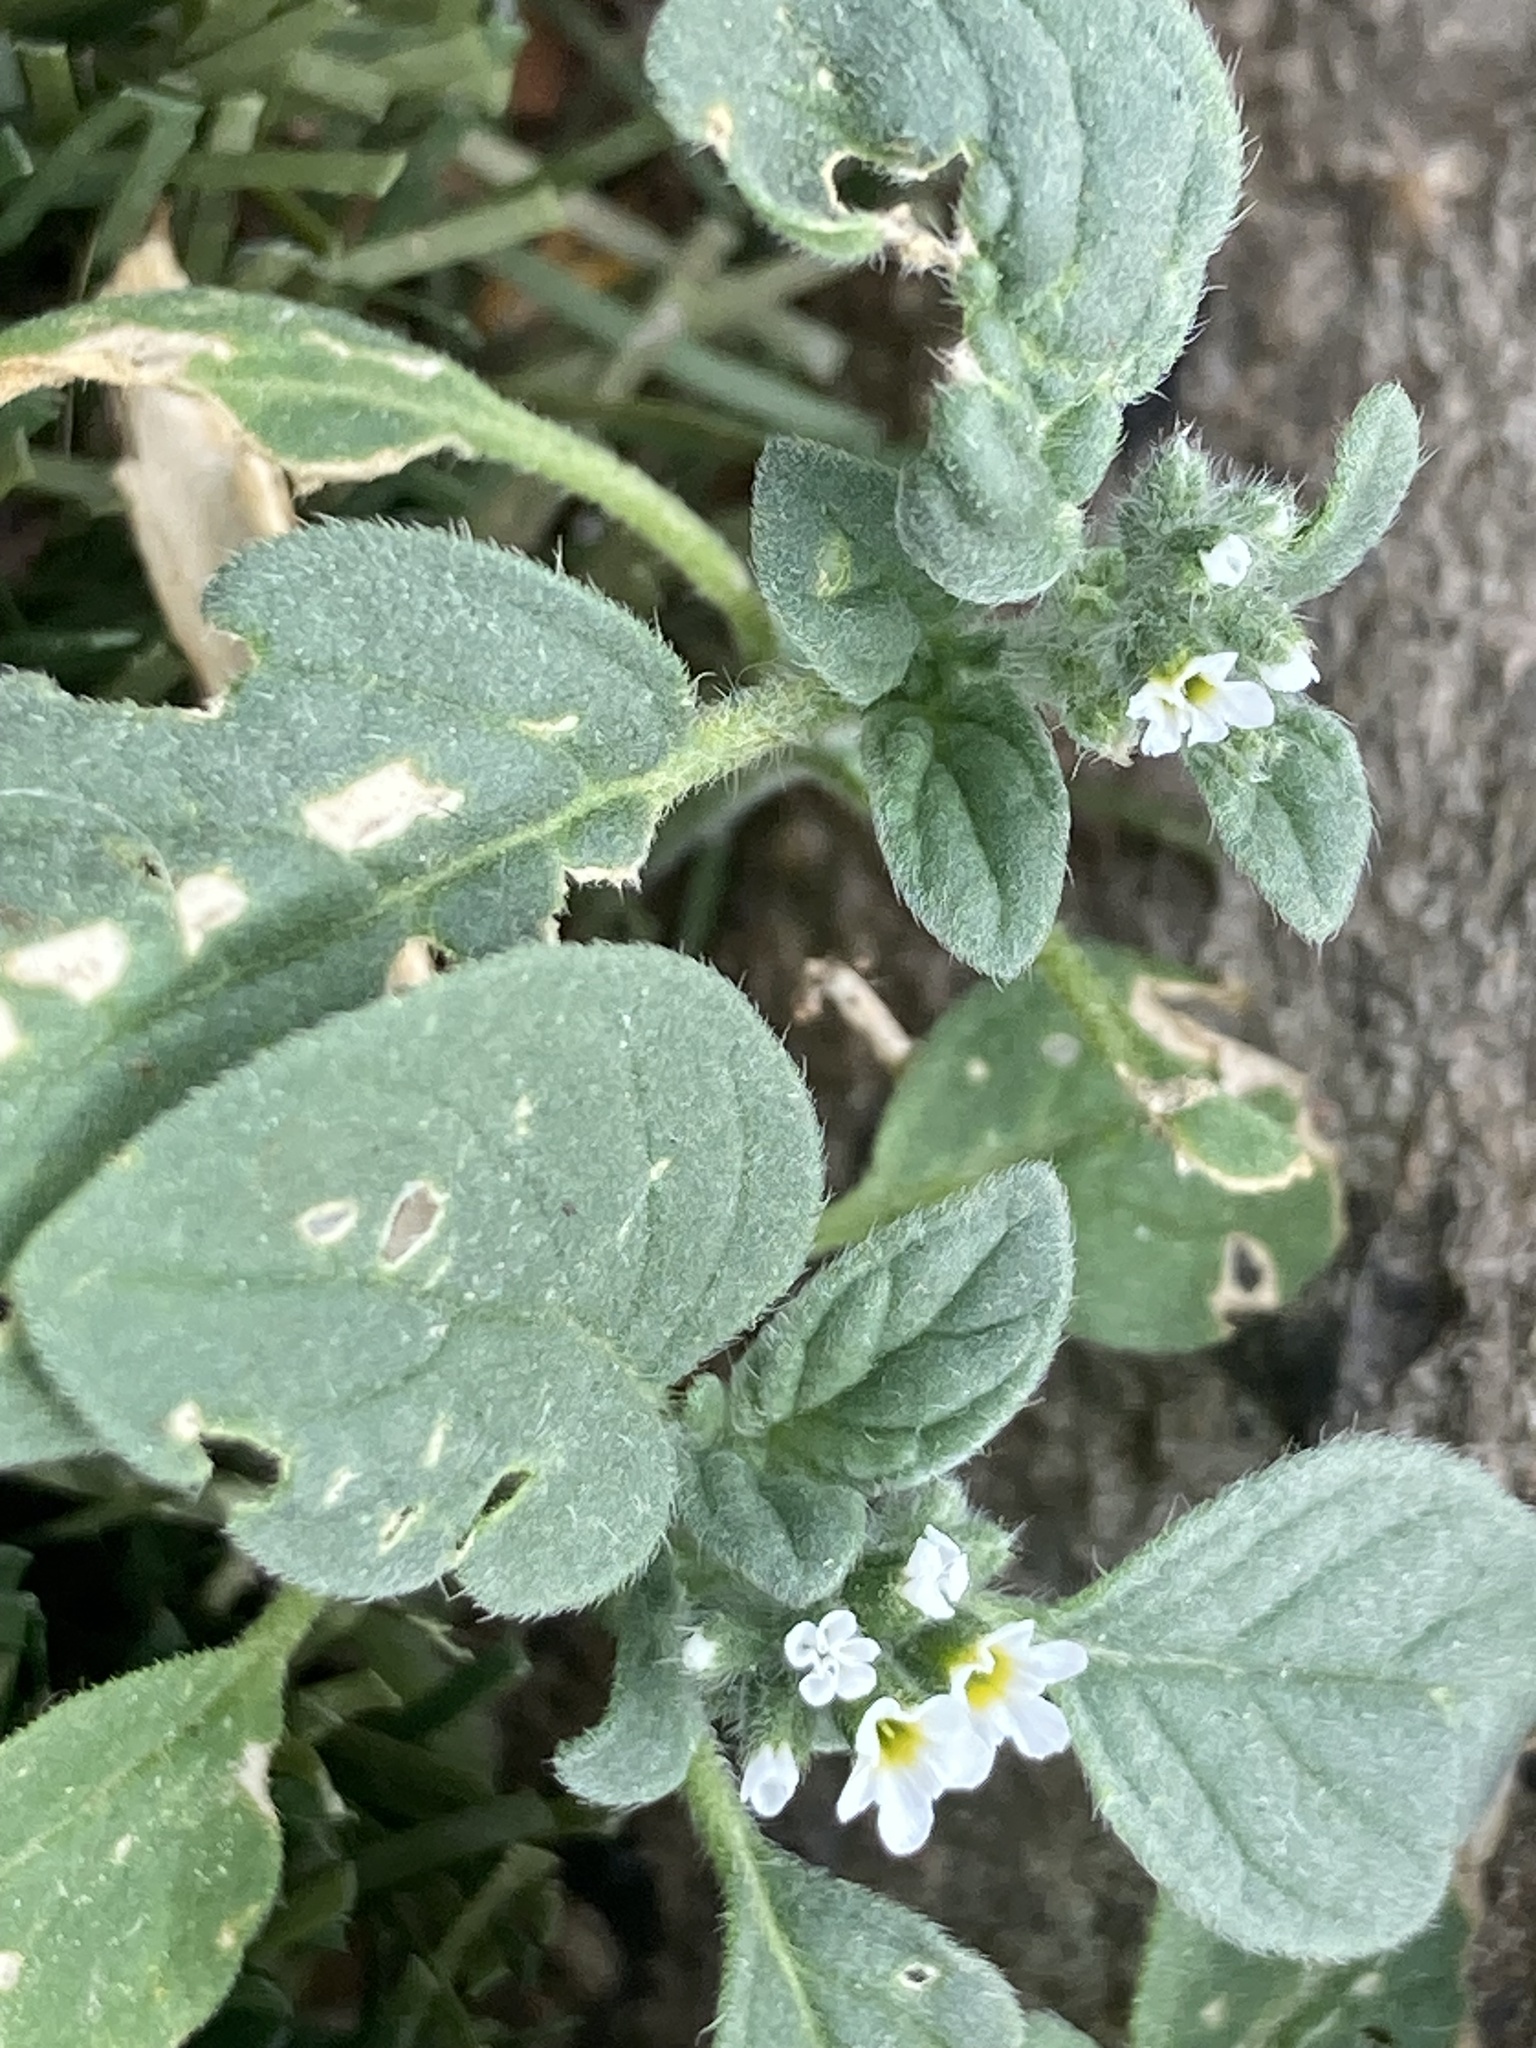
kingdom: Plantae
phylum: Tracheophyta
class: Magnoliopsida
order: Boraginales
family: Heliotropiaceae
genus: Heliotropium
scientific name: Heliotropium europaeum
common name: European heliotrope
